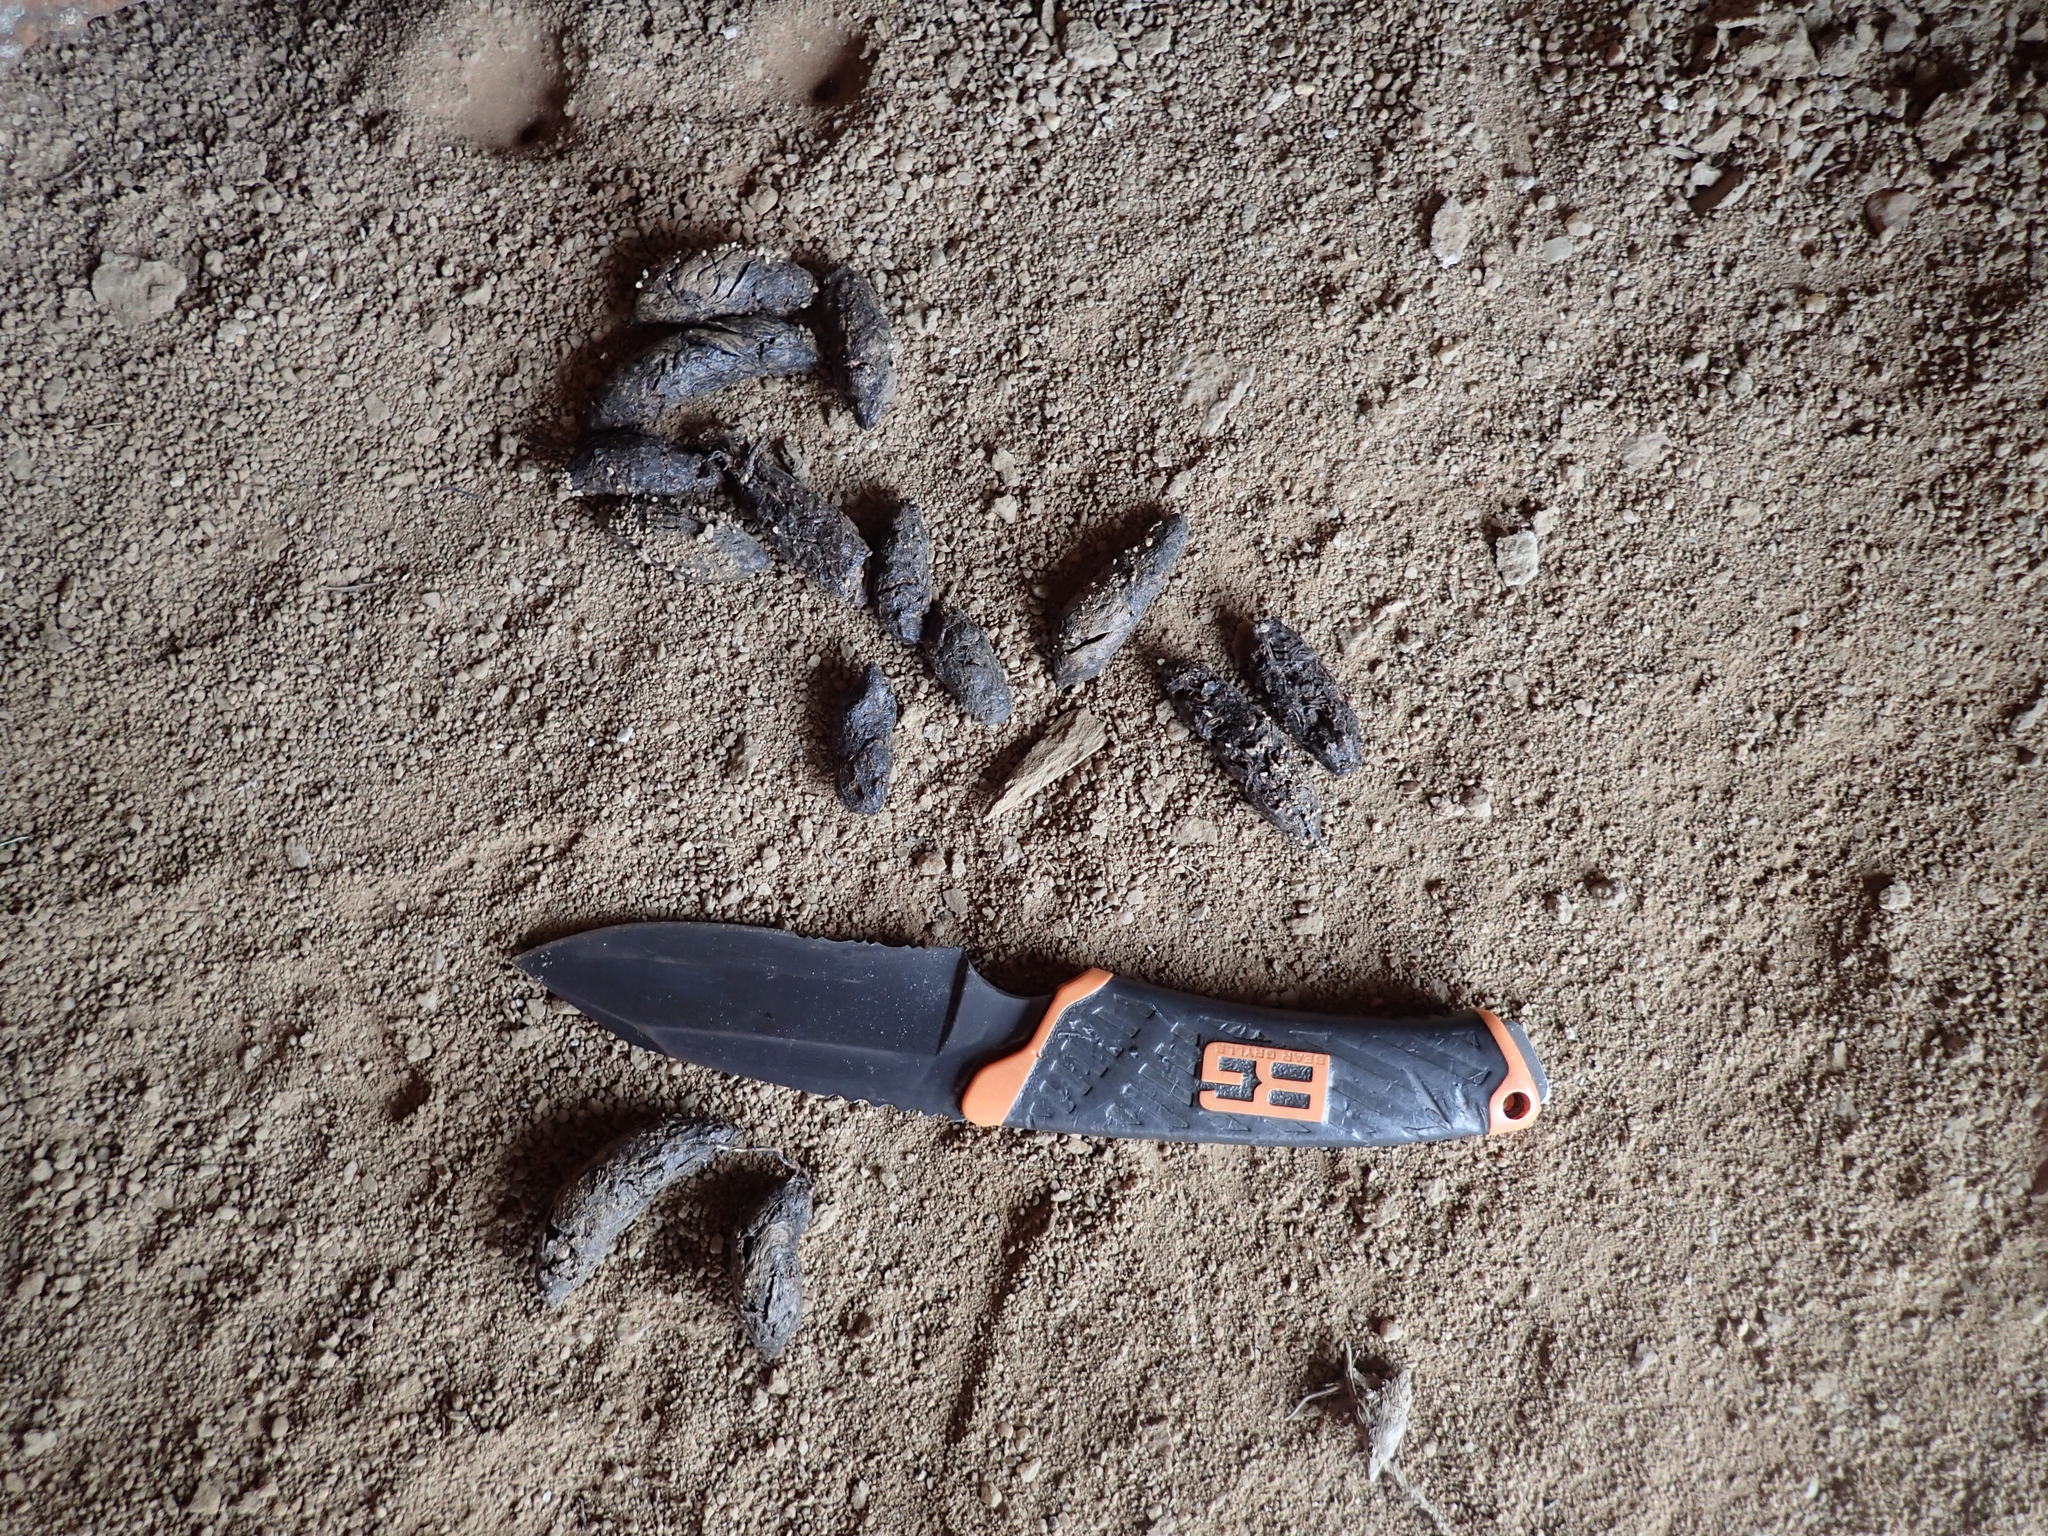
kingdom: Animalia
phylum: Chordata
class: Mammalia
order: Rodentia
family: Hystricidae
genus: Hystrix
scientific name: Hystrix africaeaustralis
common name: Cape porcupine
